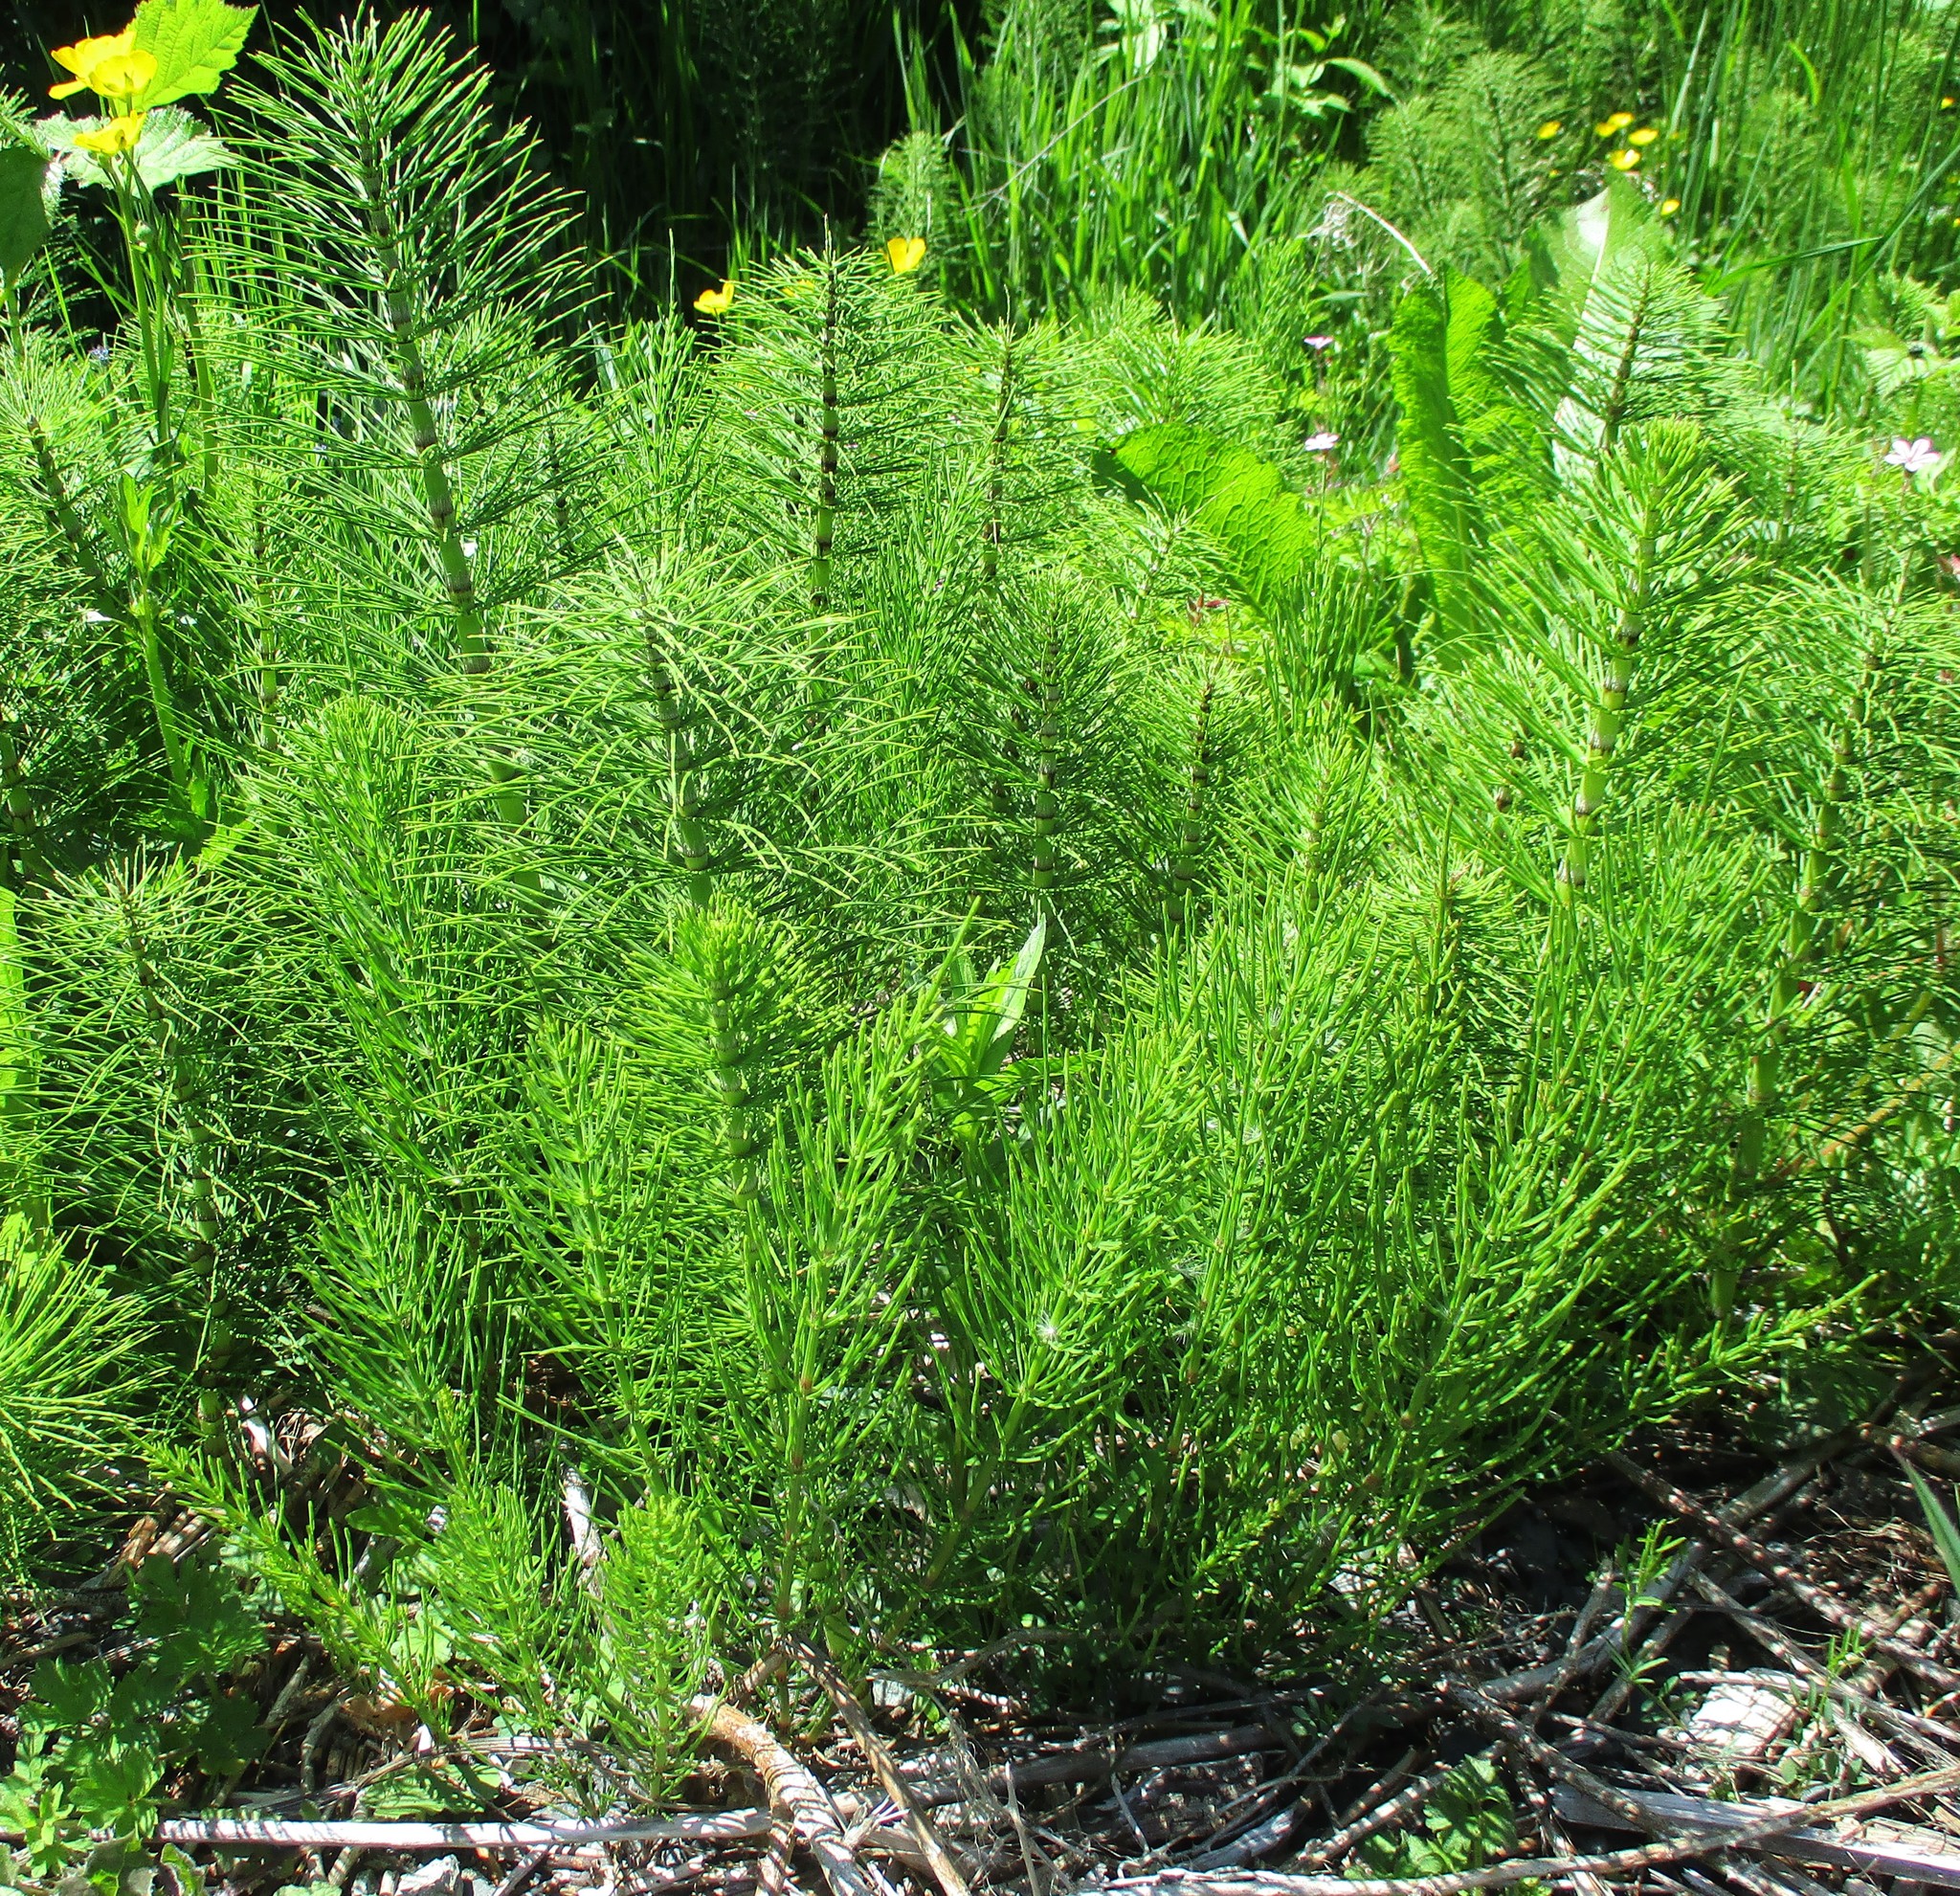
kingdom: Plantae
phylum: Tracheophyta
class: Polypodiopsida
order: Equisetales
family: Equisetaceae
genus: Equisetum
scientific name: Equisetum telmateia
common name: Great horsetail
